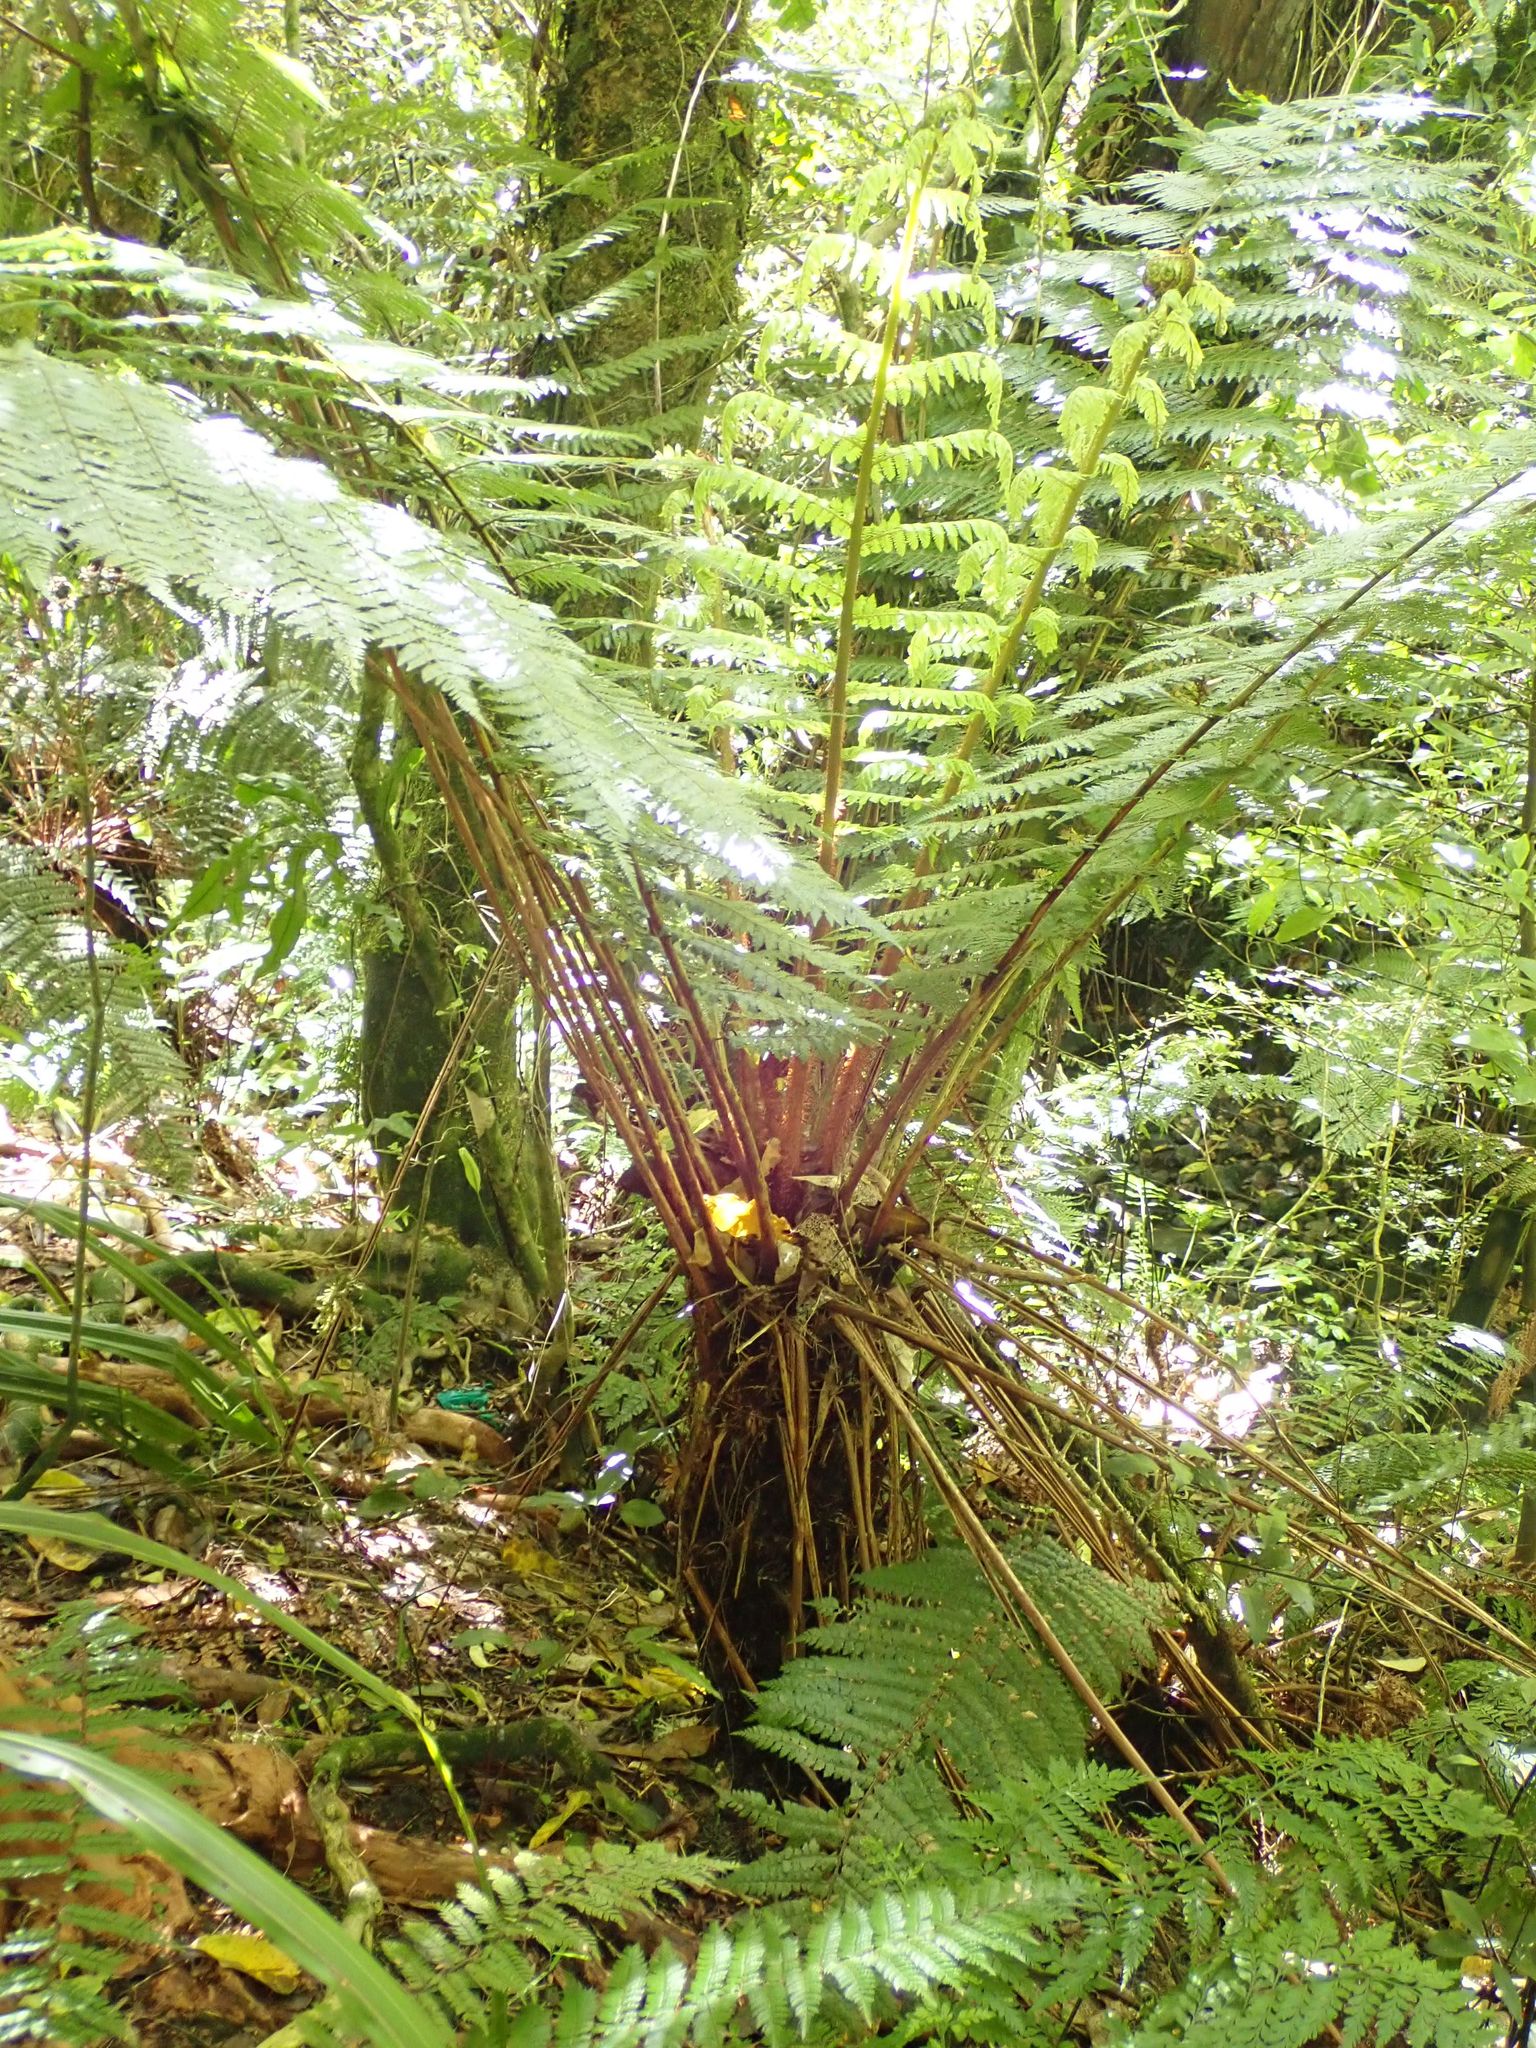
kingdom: Plantae
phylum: Tracheophyta
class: Polypodiopsida
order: Cyatheales
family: Cyatheaceae
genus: Alsophila
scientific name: Alsophila smithii
